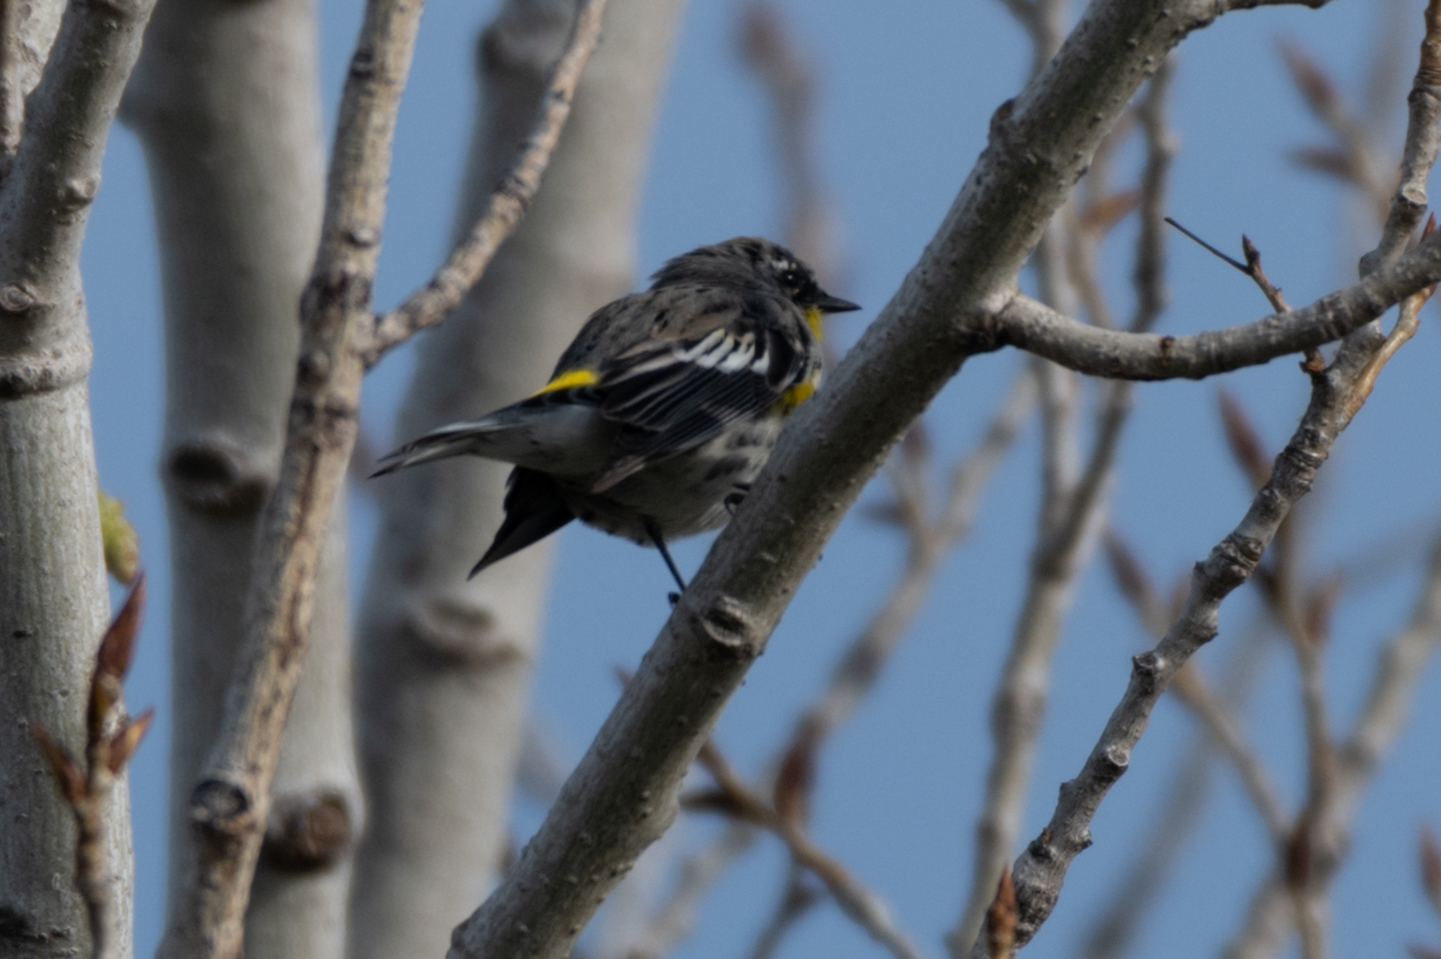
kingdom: Animalia
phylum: Chordata
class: Aves
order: Passeriformes
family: Parulidae
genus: Setophaga
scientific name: Setophaga coronata
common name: Myrtle warbler
